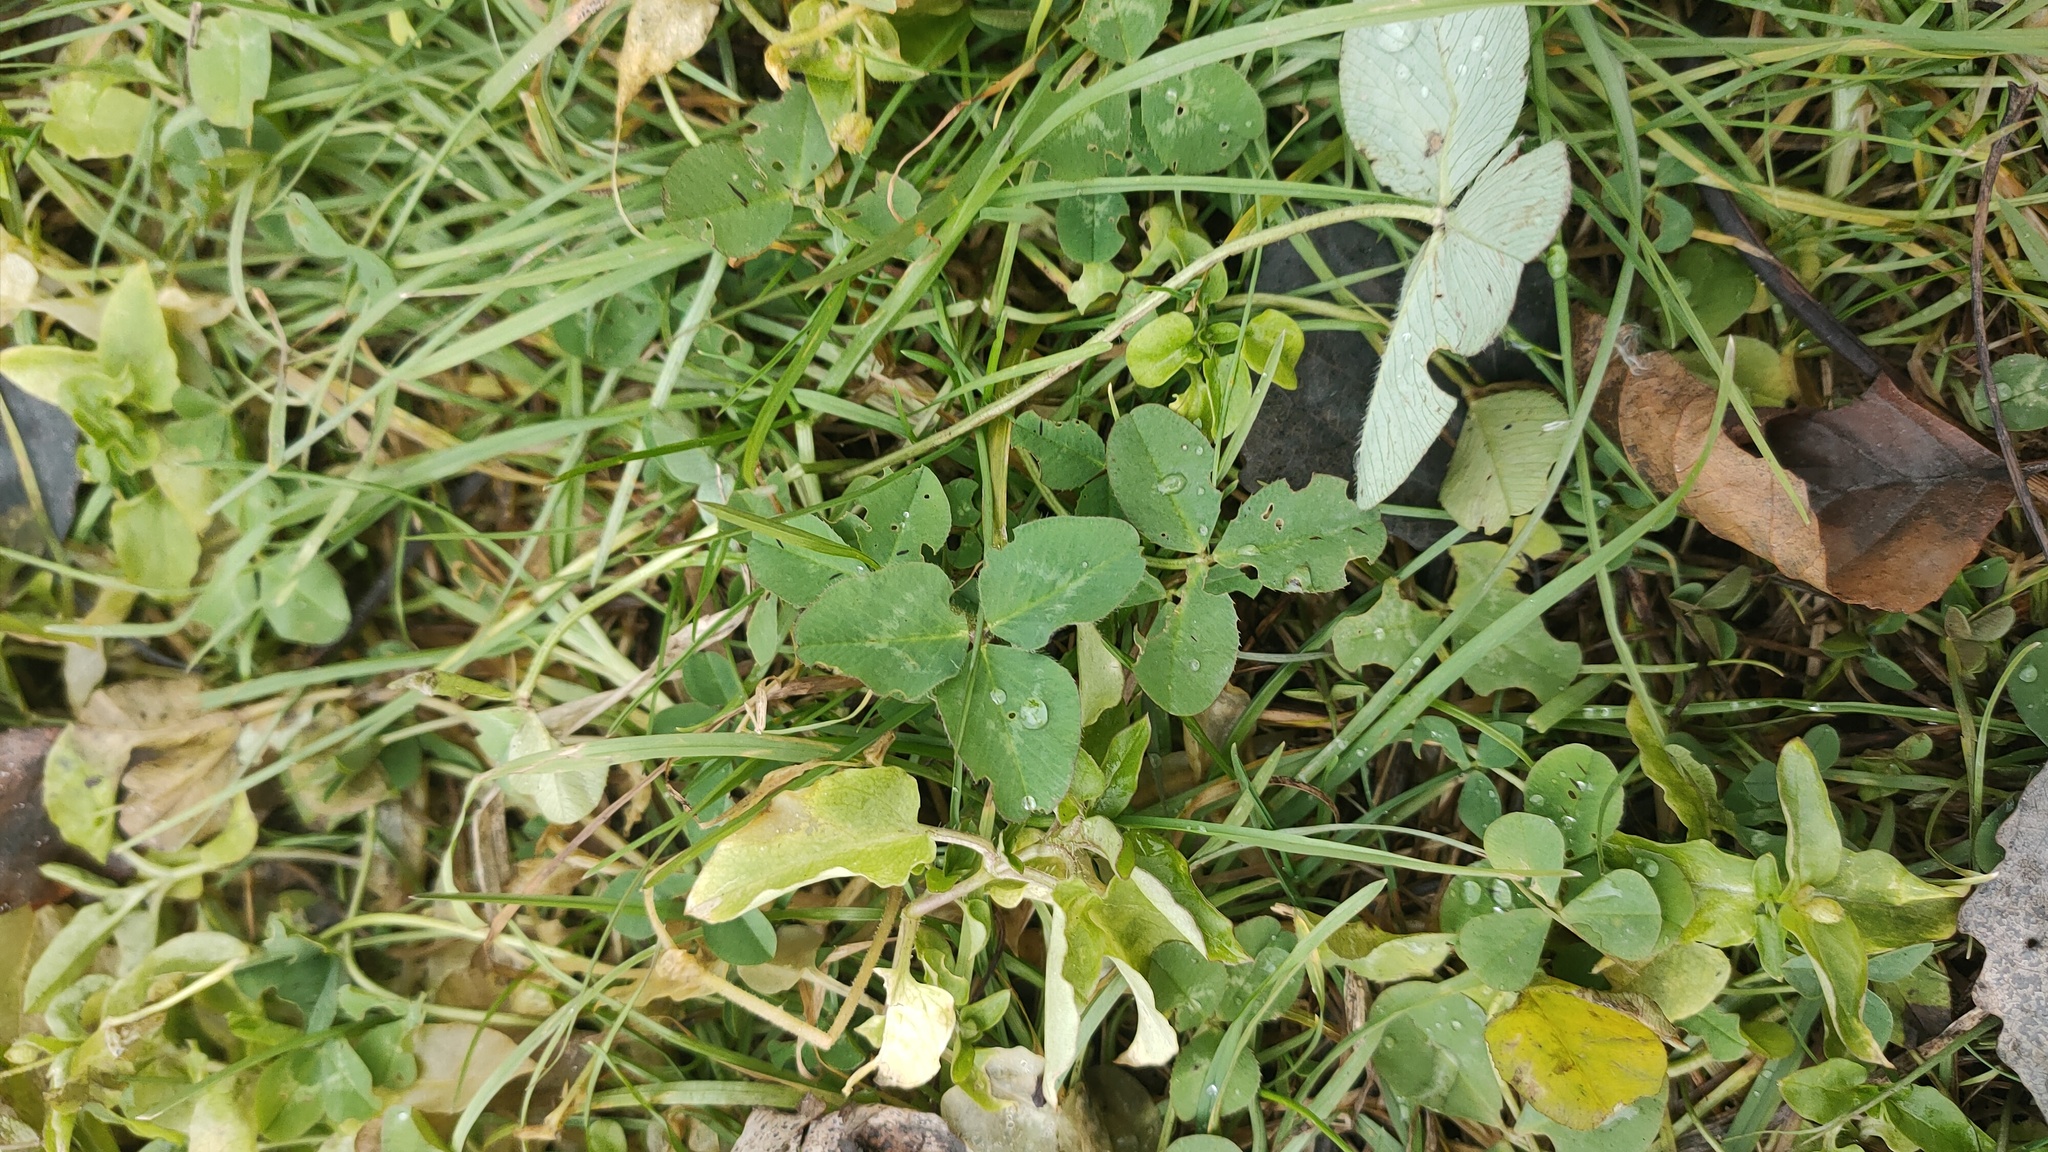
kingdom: Plantae
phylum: Tracheophyta
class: Magnoliopsida
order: Fabales
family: Fabaceae
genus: Trifolium
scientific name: Trifolium repens
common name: White clover
